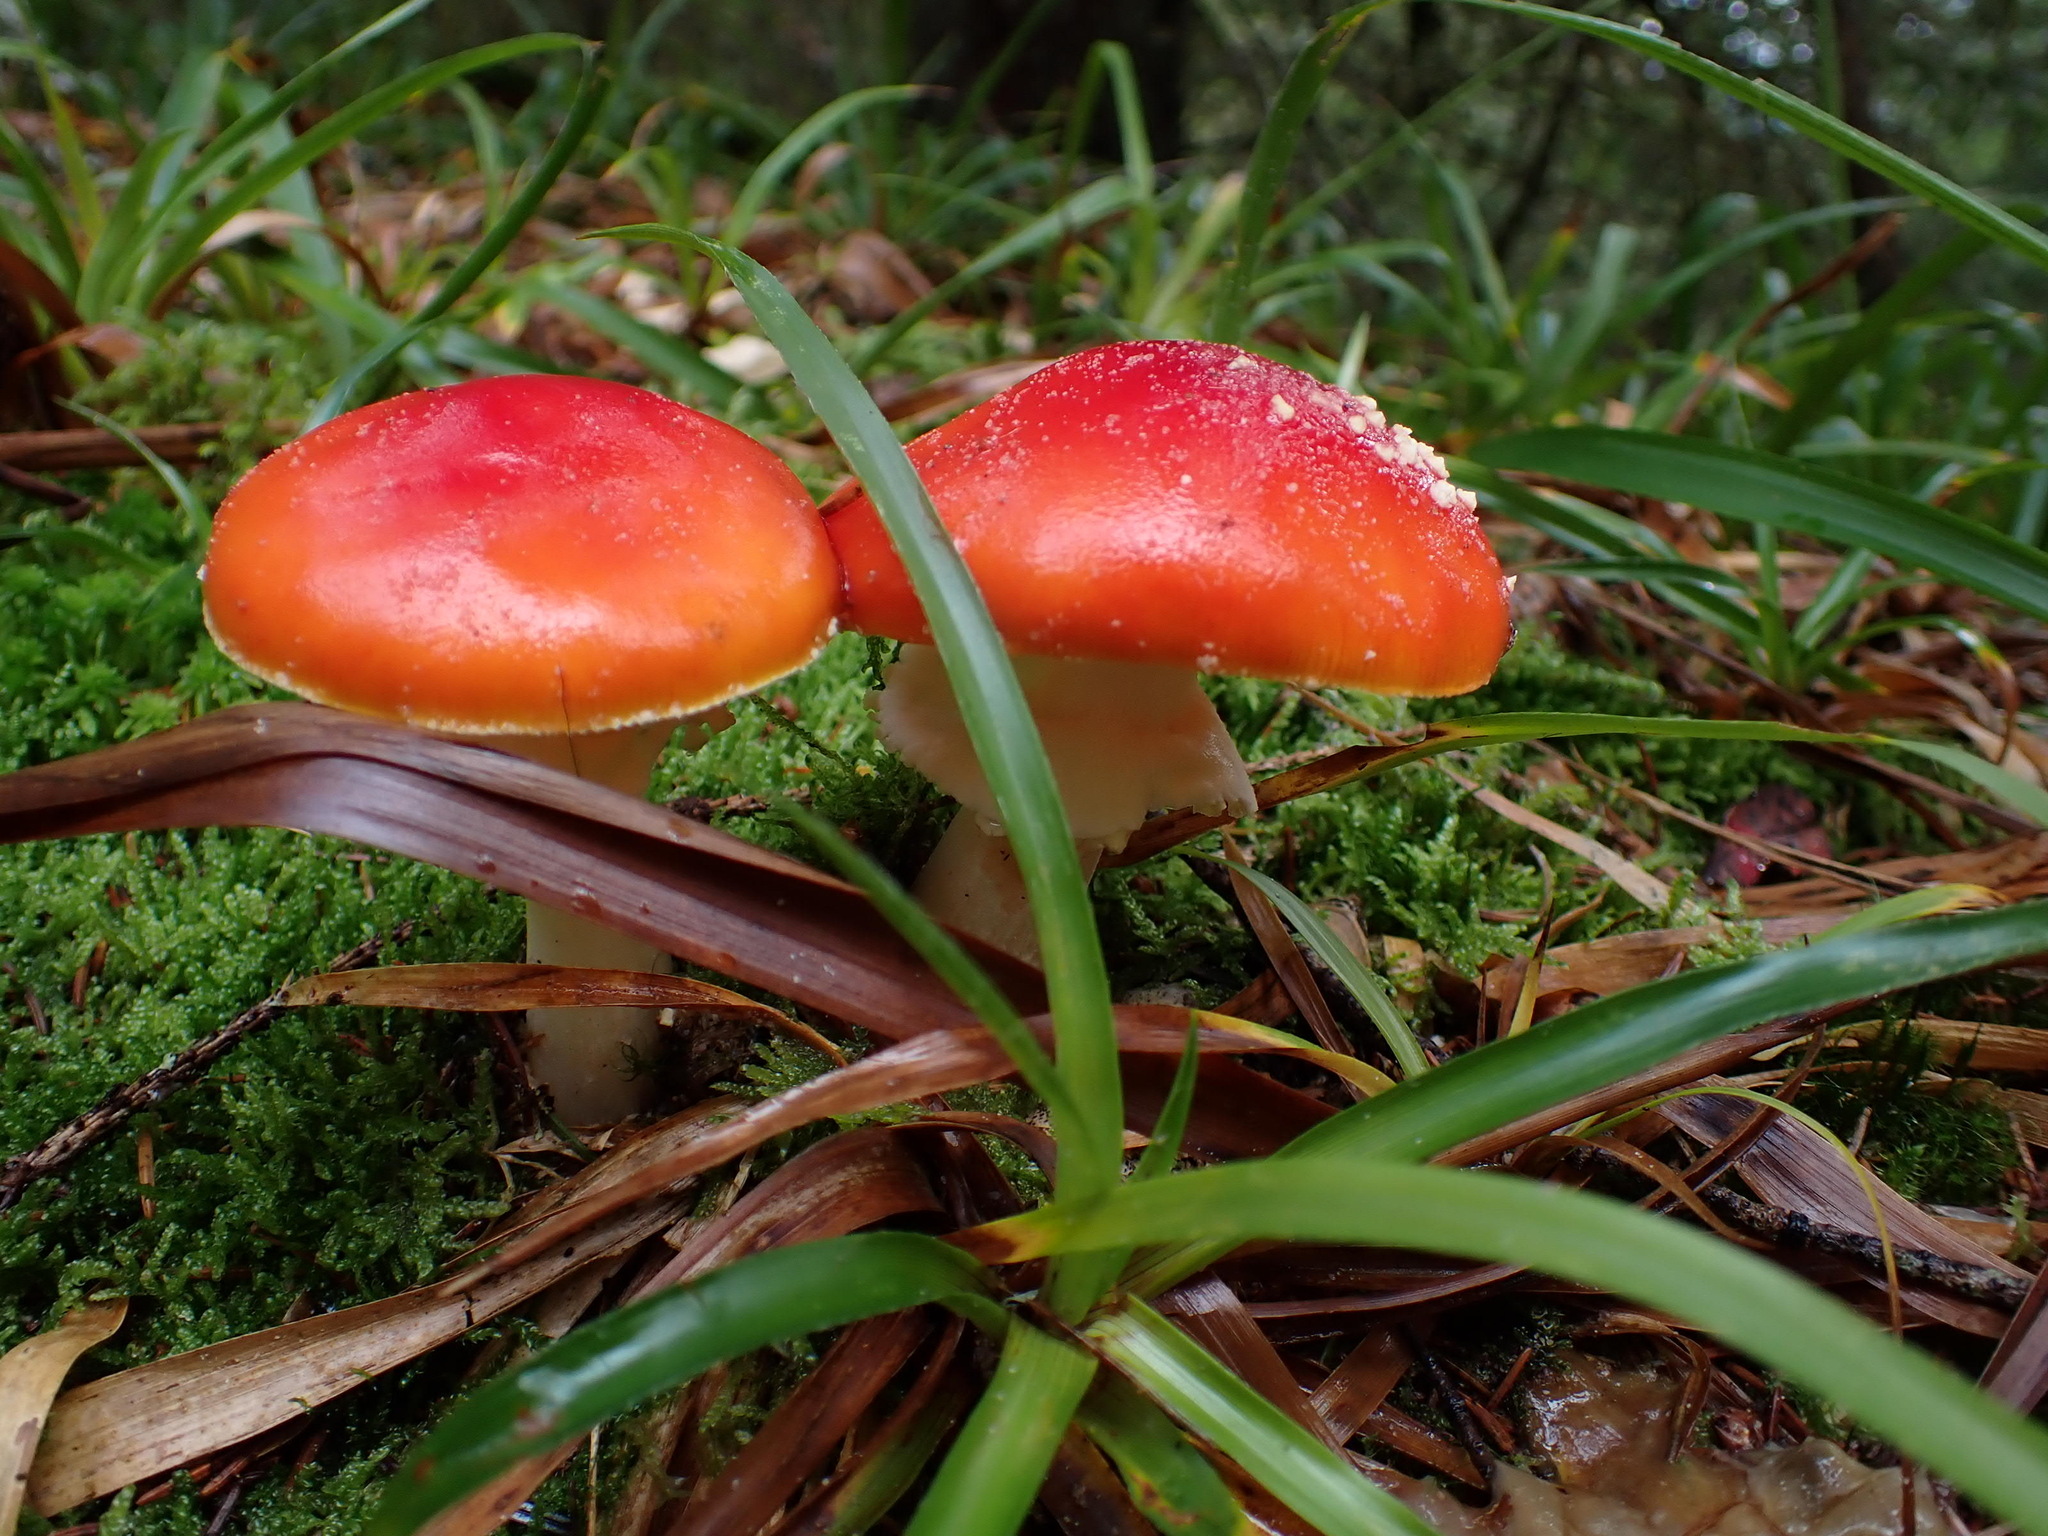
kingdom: Fungi
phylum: Basidiomycota
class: Agaricomycetes
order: Agaricales
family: Amanitaceae
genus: Amanita
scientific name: Amanita muscaria
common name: Fly agaric
